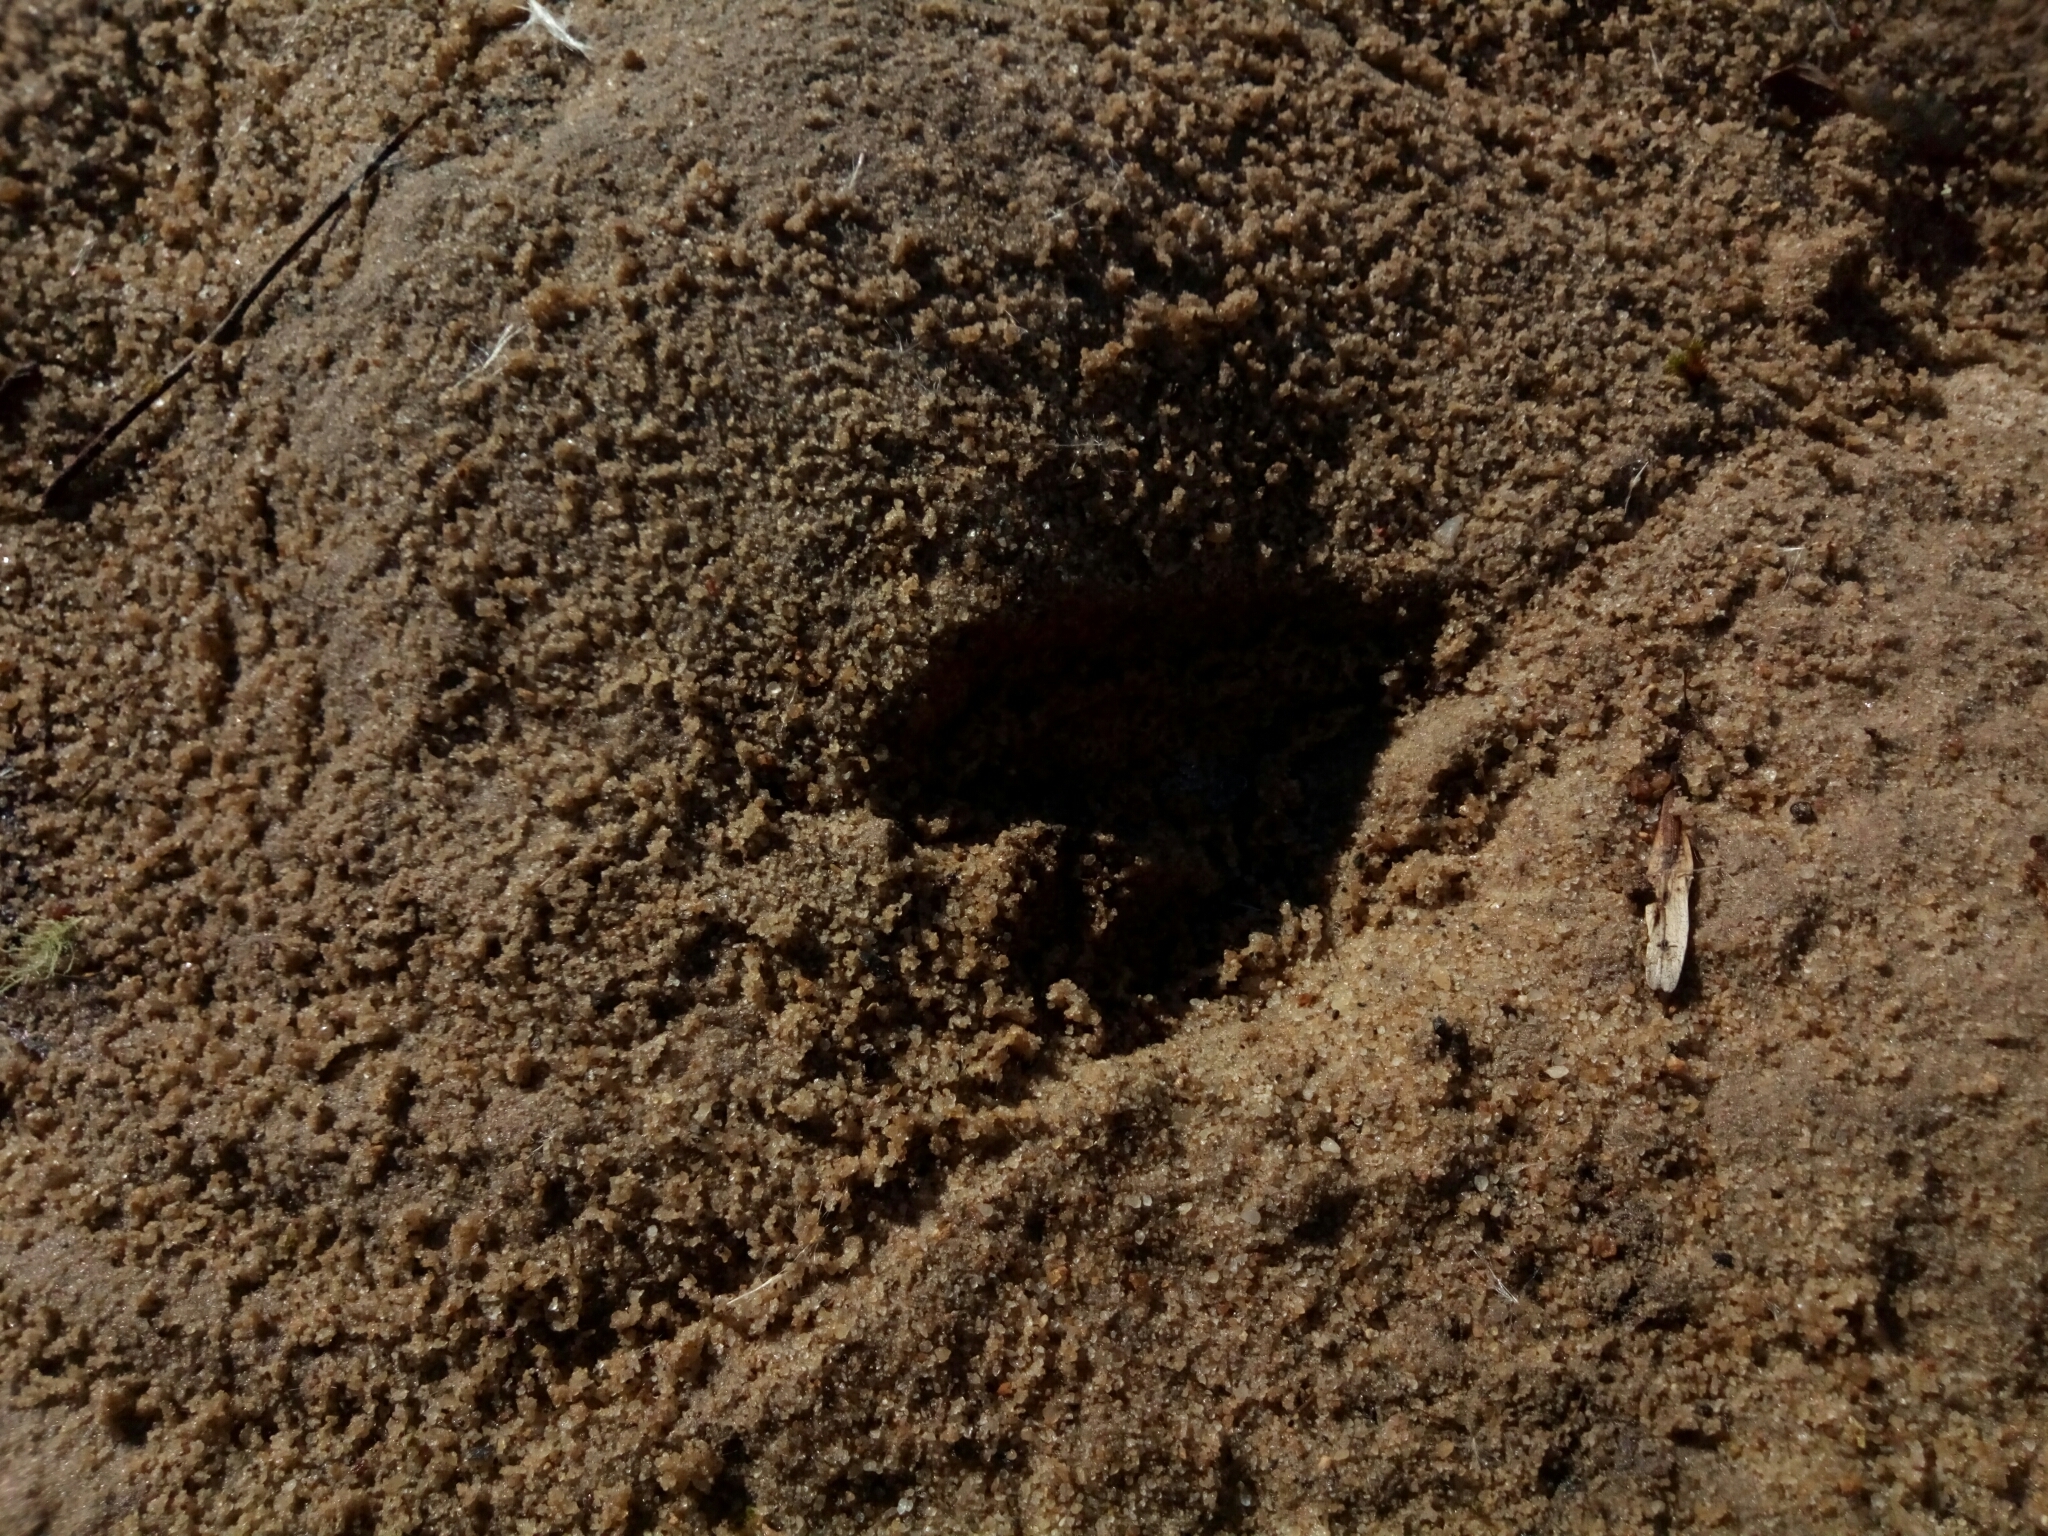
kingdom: Animalia
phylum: Chordata
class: Mammalia
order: Artiodactyla
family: Cervidae
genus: Odocoileus
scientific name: Odocoileus virginianus
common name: White-tailed deer
